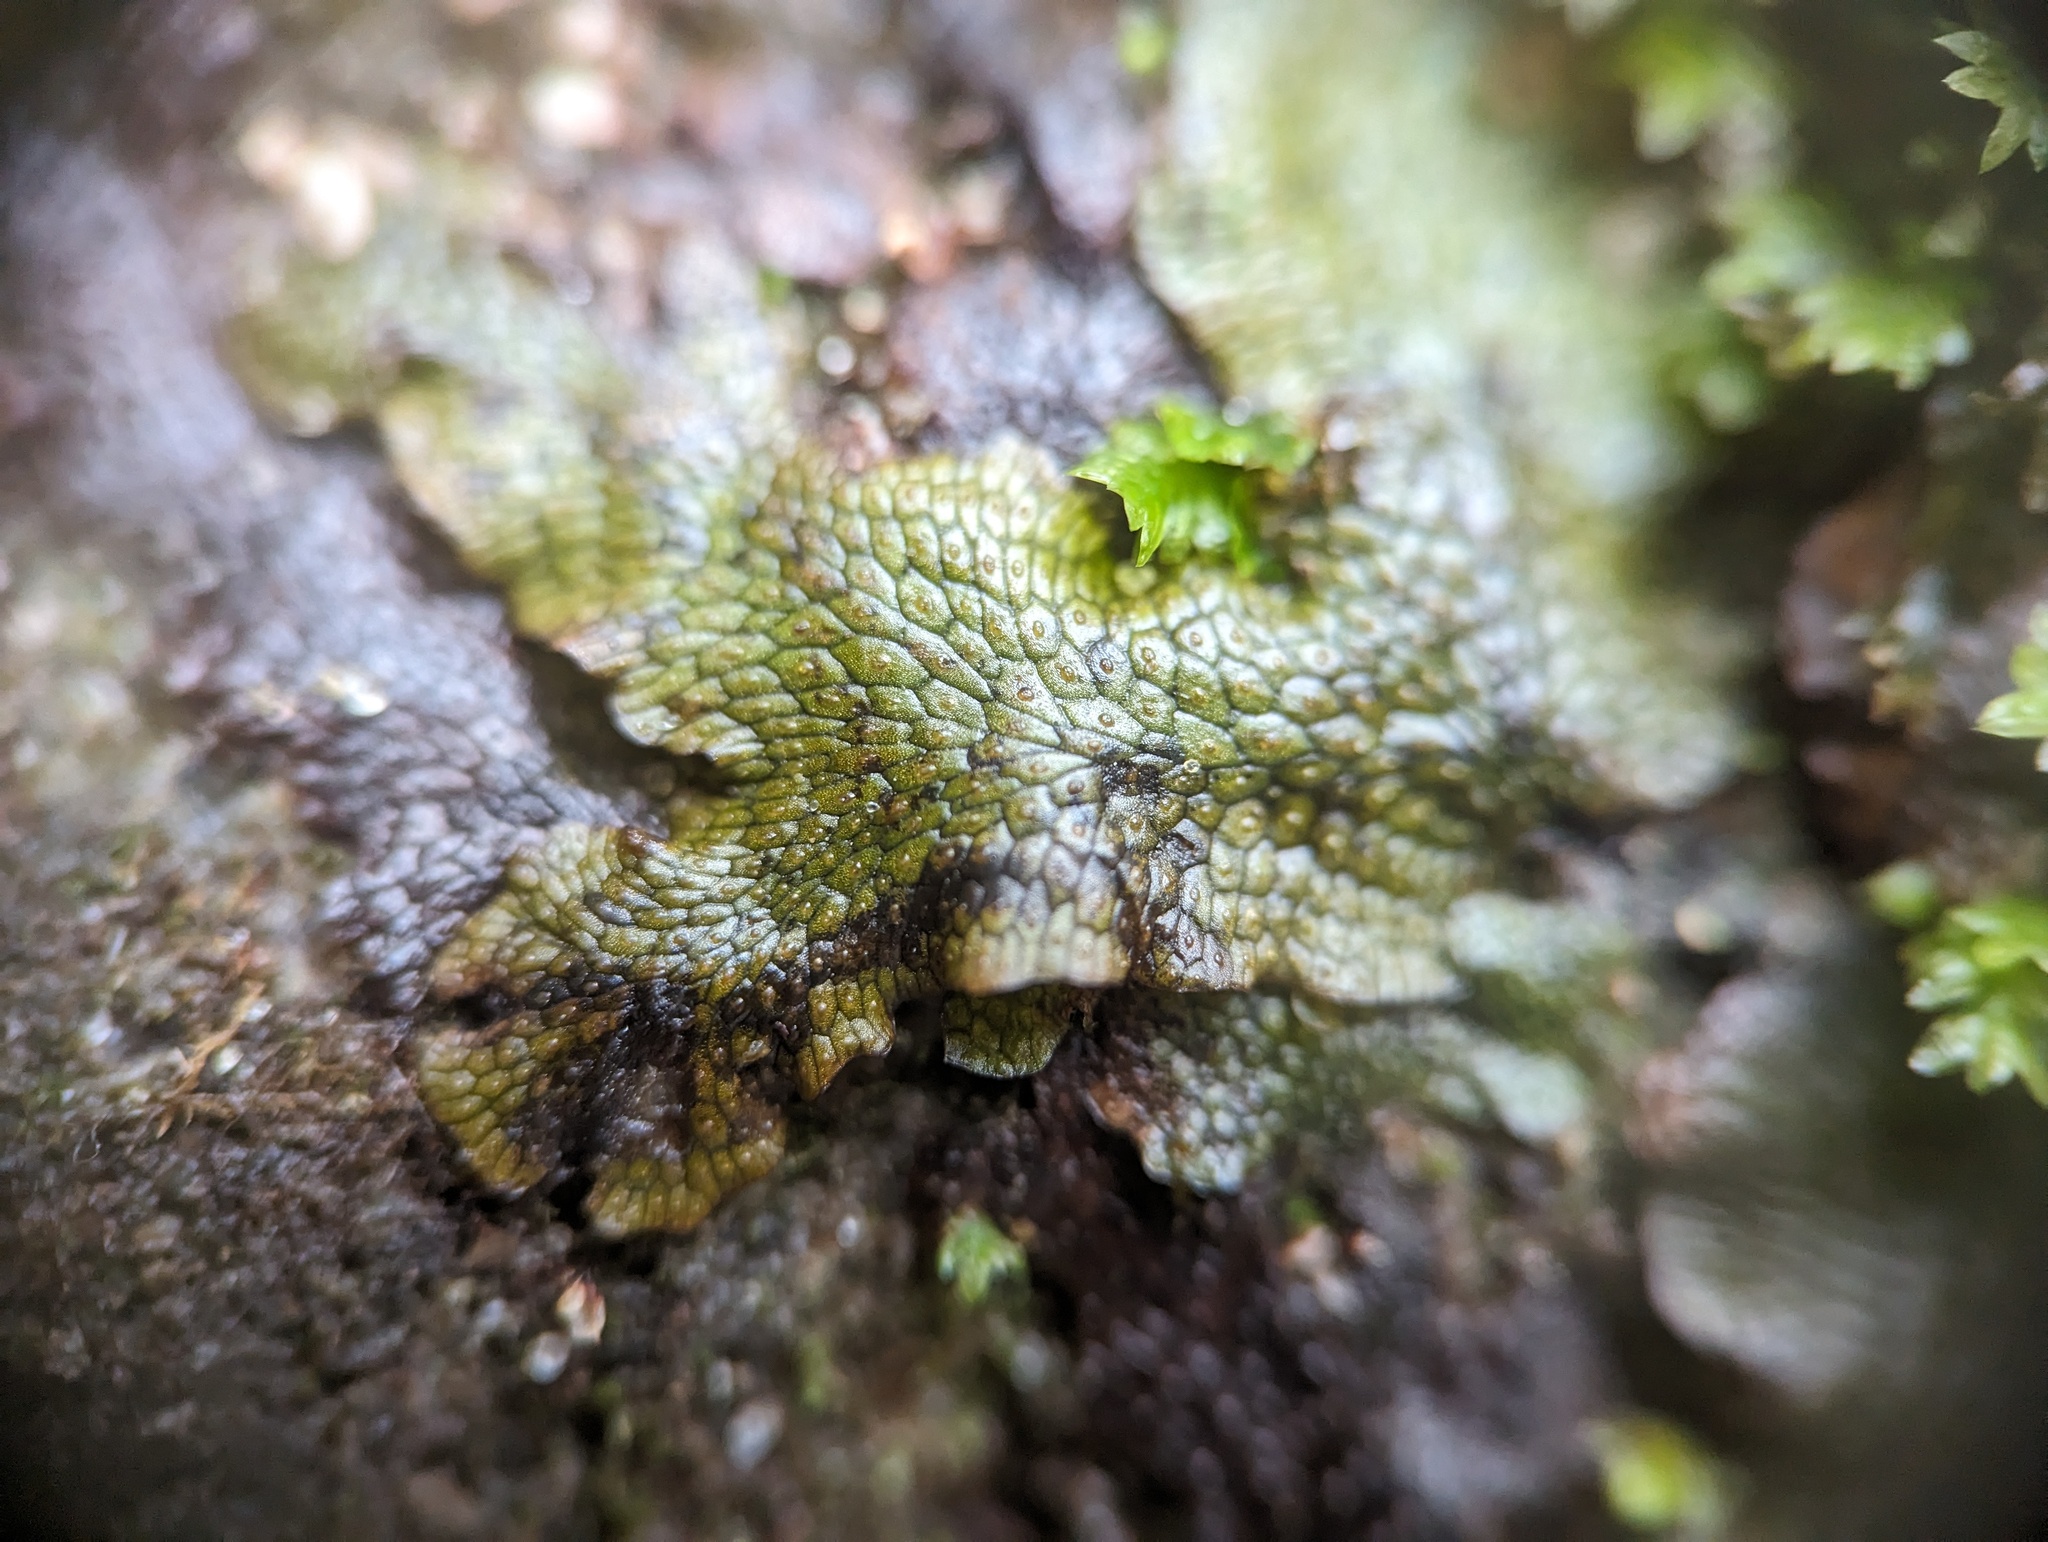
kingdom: Plantae
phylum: Marchantiophyta
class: Marchantiopsida
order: Marchantiales
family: Conocephalaceae
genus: Conocephalum
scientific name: Conocephalum salebrosum
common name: Cat-tongue liverwort
